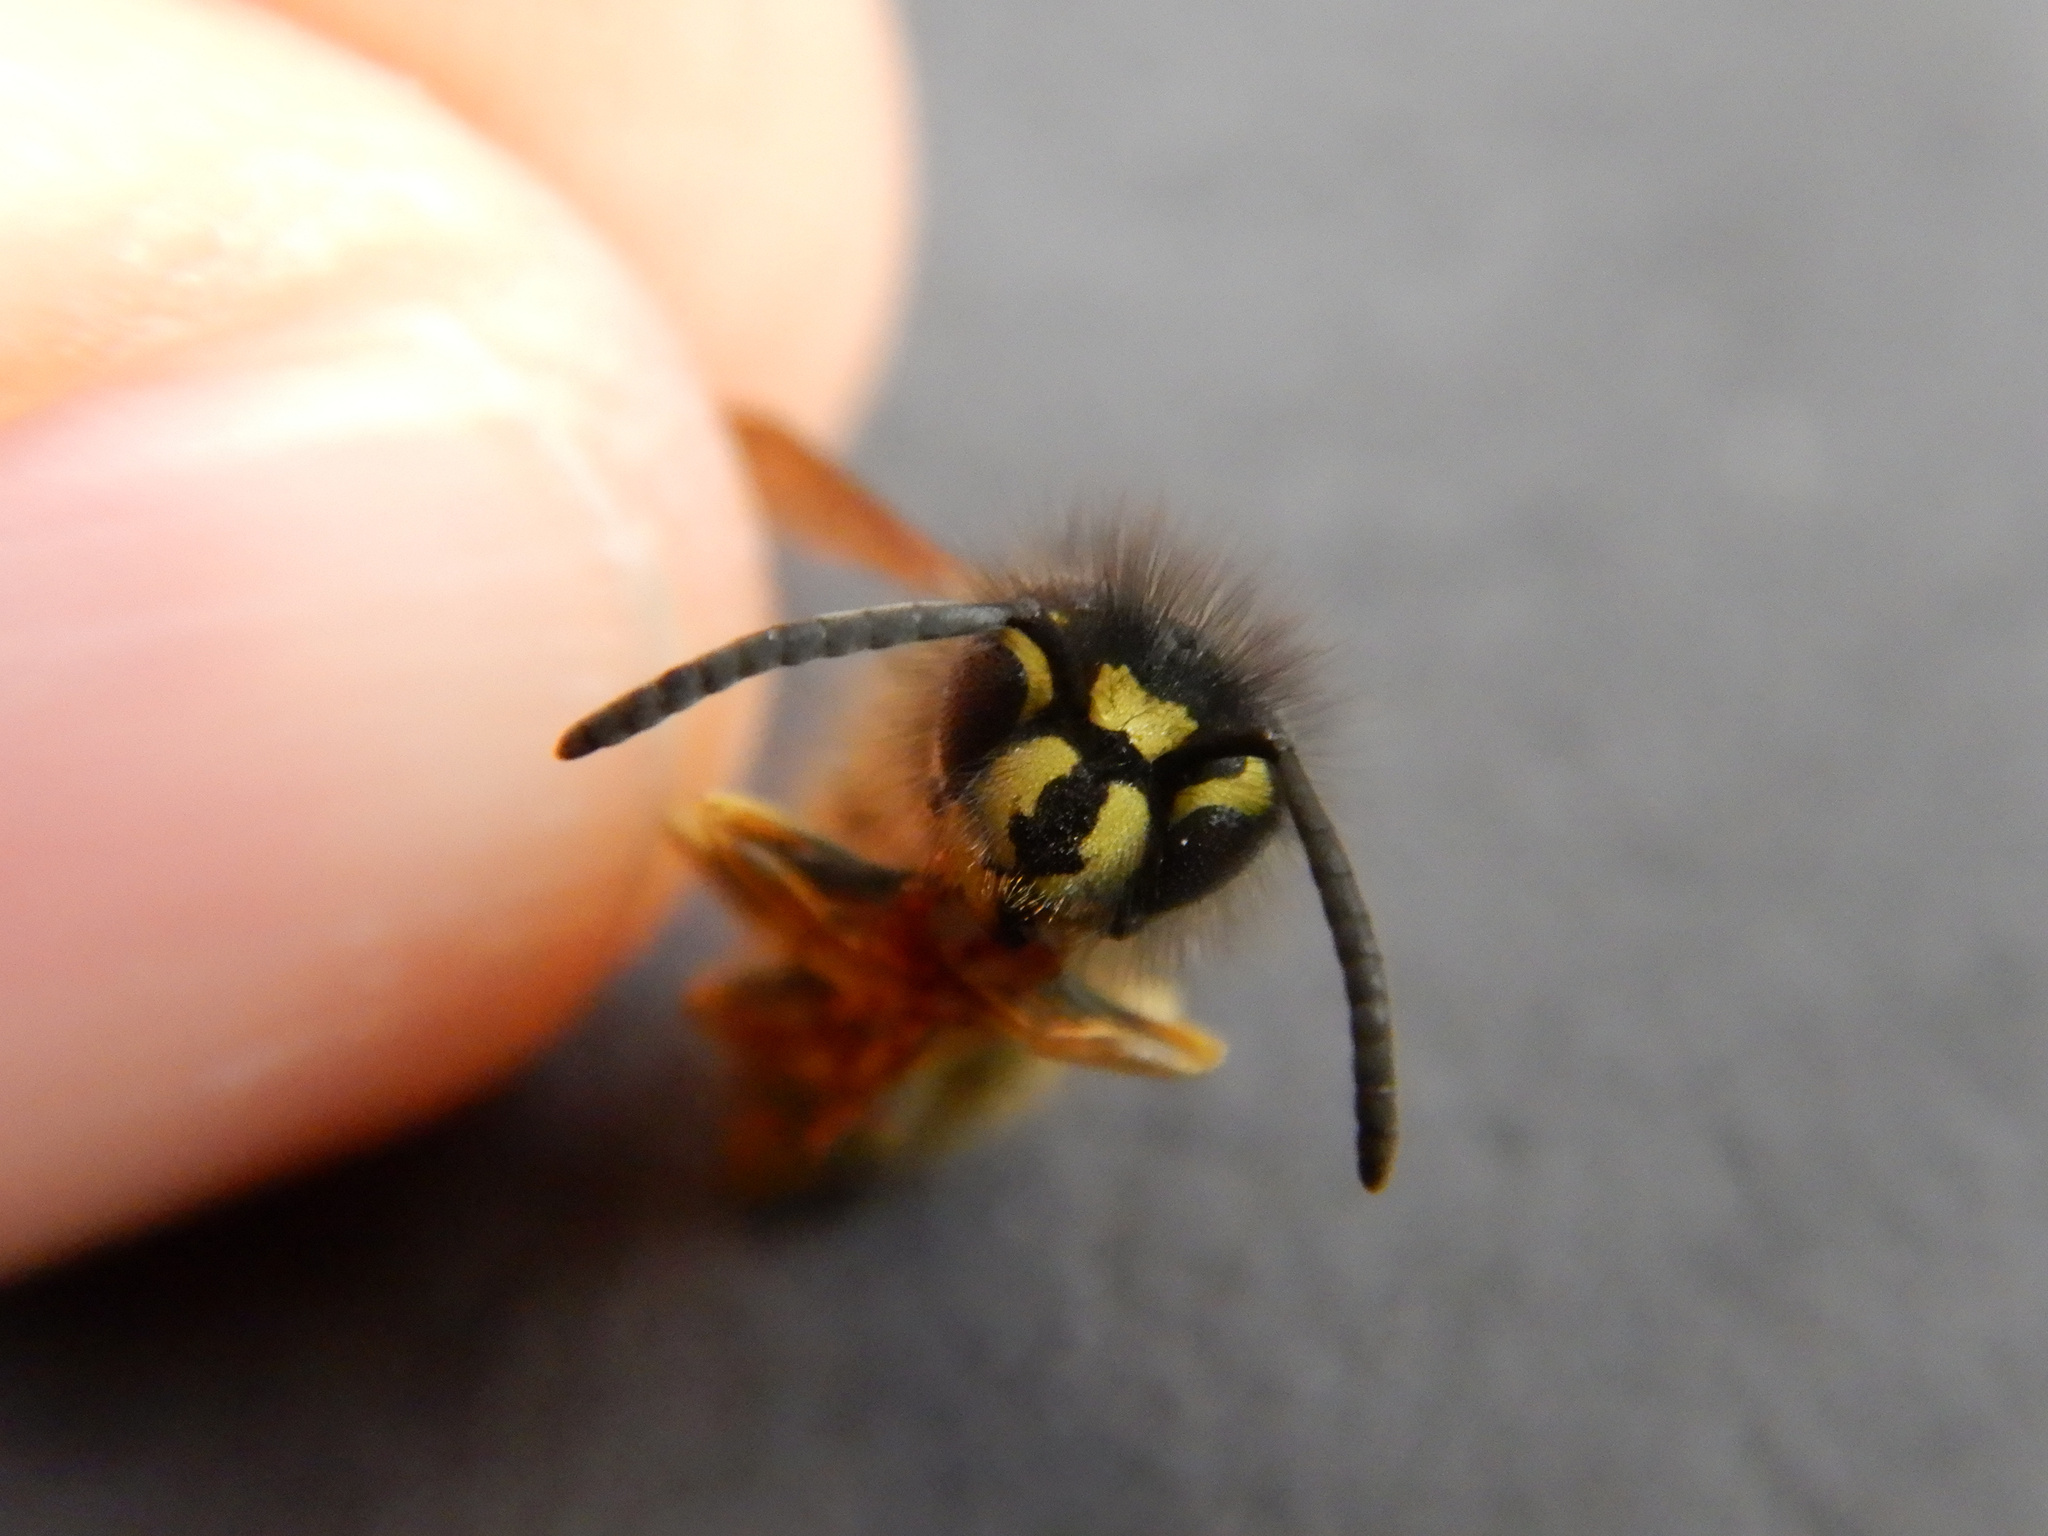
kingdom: Animalia
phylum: Arthropoda
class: Insecta
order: Hymenoptera
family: Vespidae
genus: Vespula
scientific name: Vespula vulgaris
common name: Common wasp
